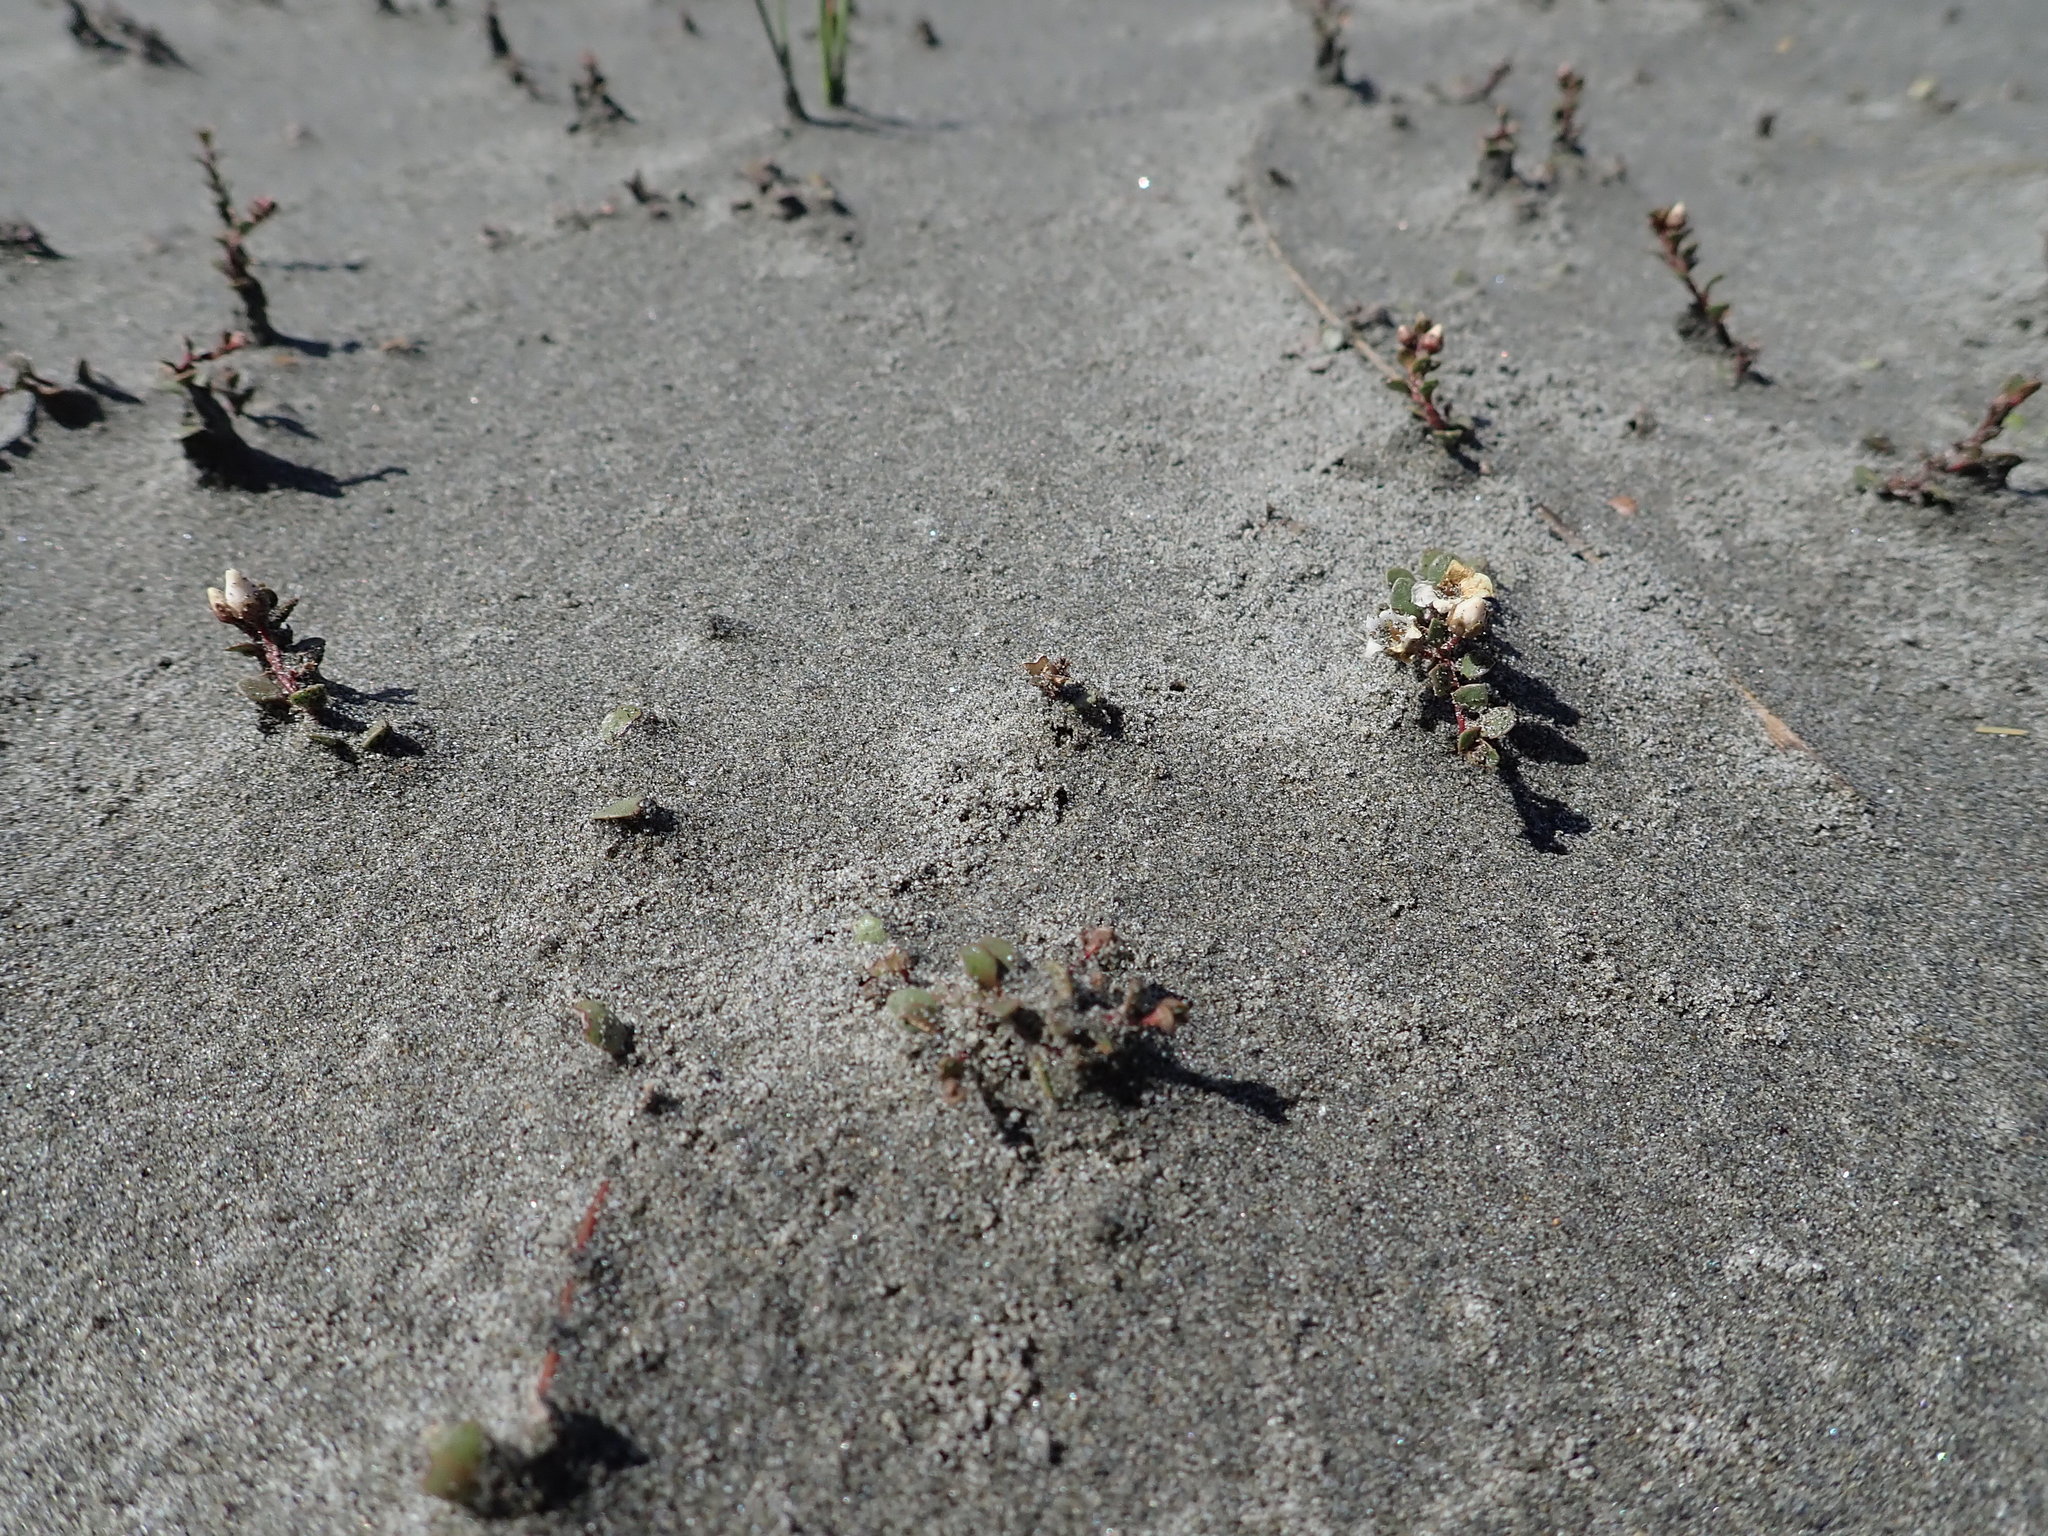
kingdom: Plantae
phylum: Tracheophyta
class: Magnoliopsida
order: Ericales
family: Primulaceae
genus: Samolus
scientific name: Samolus repens
